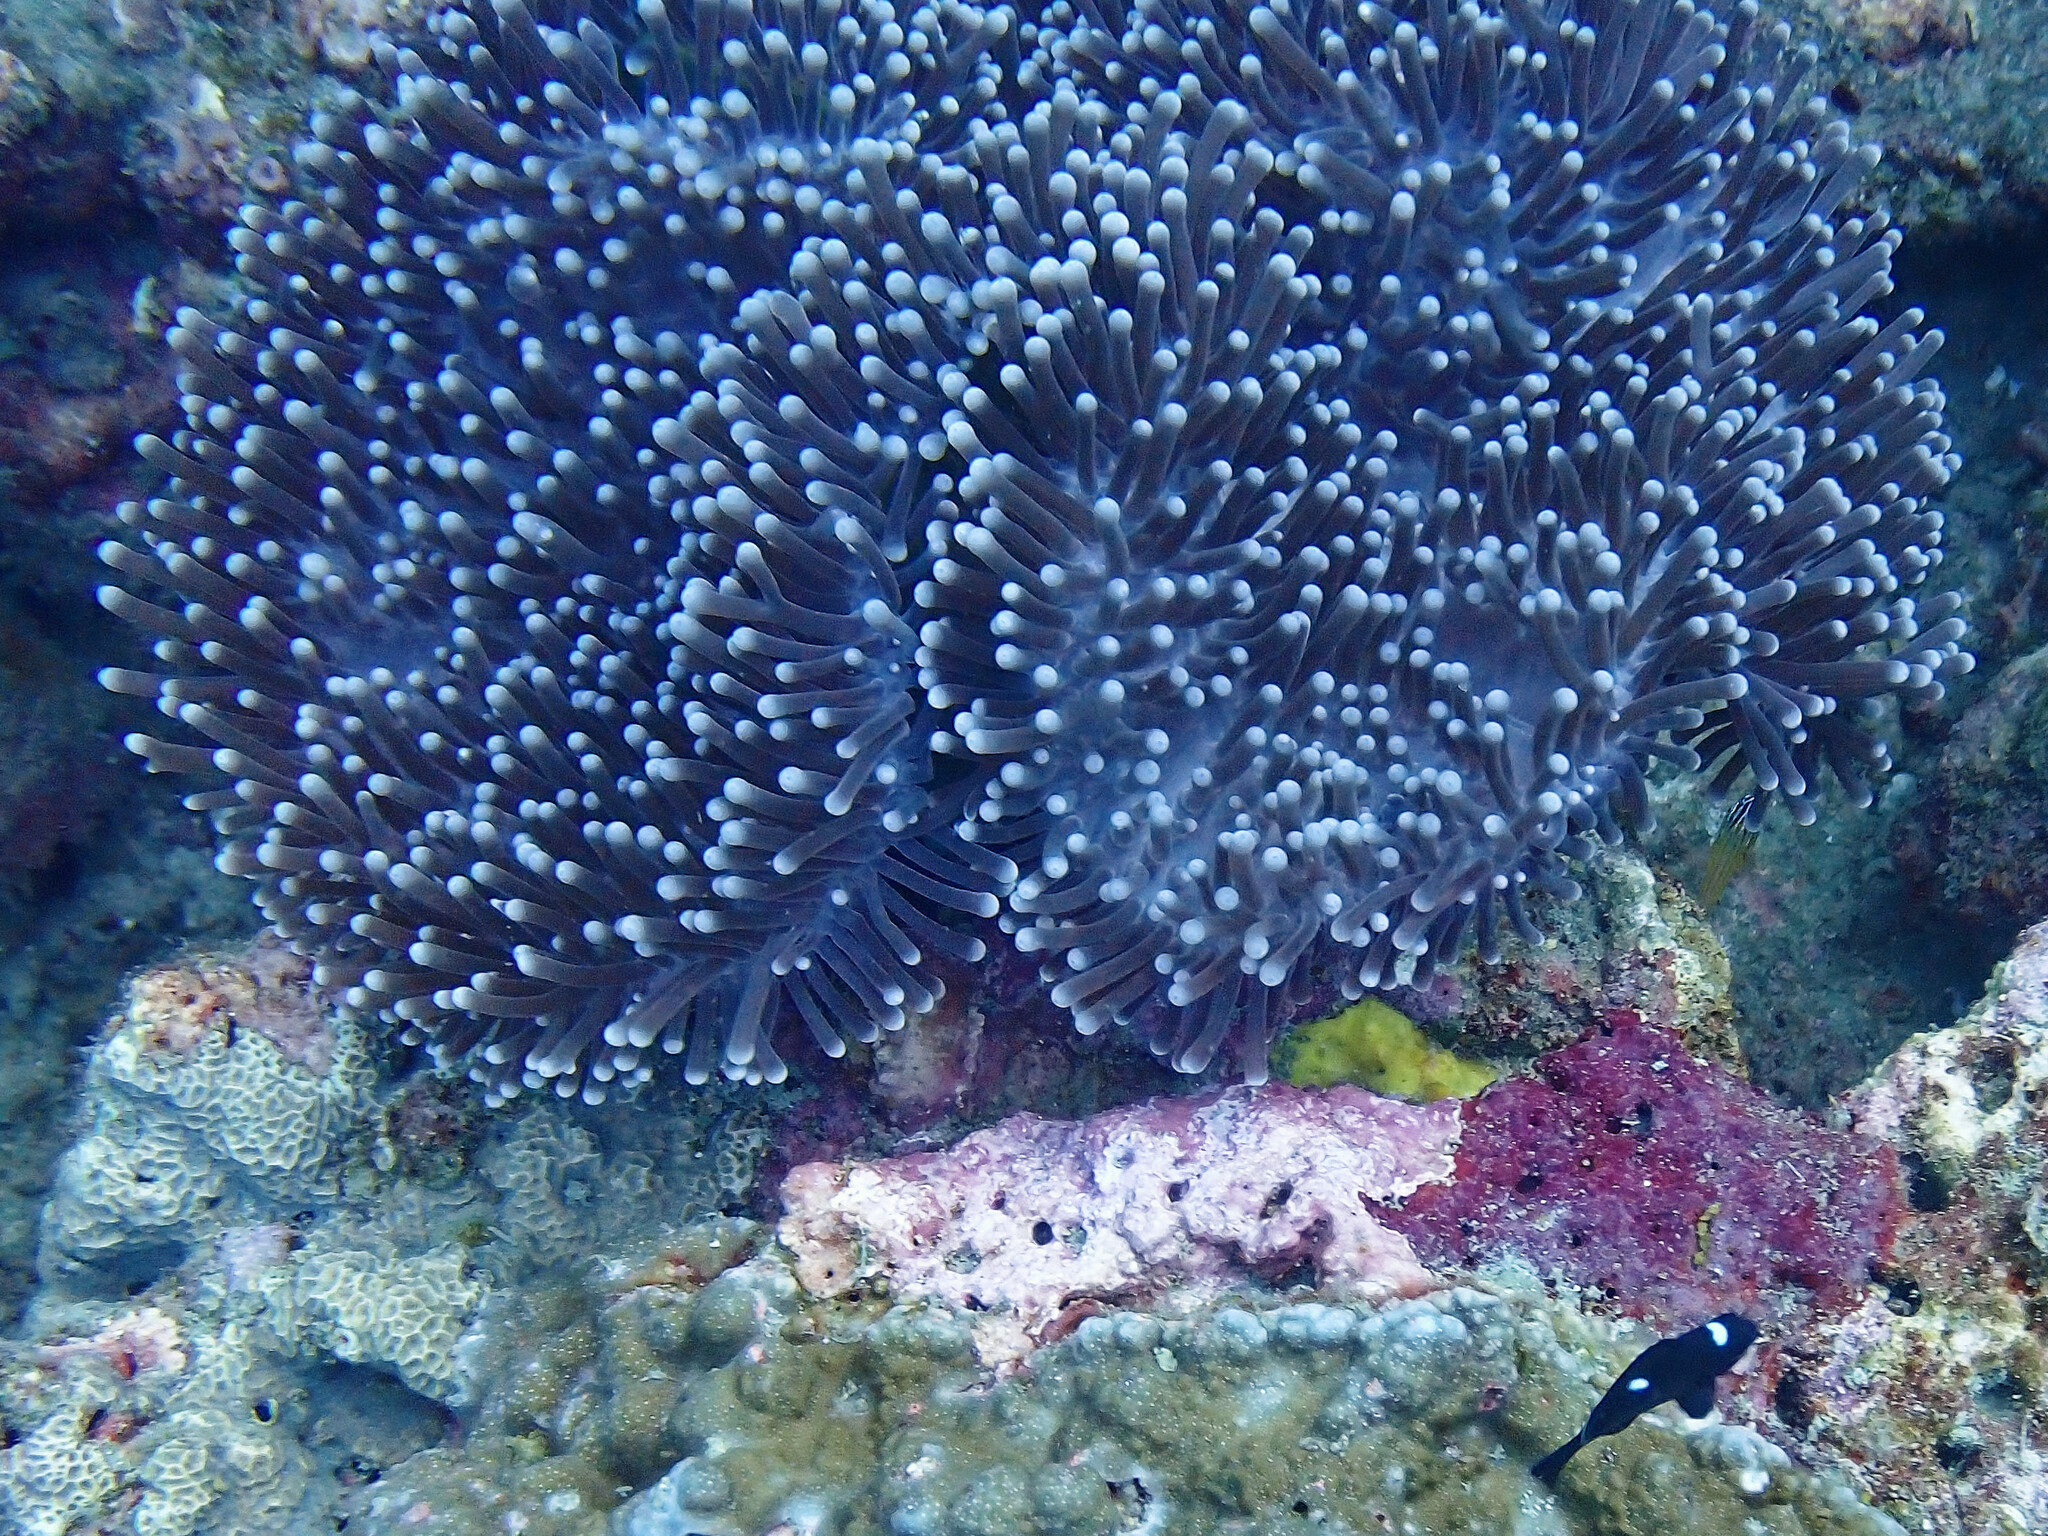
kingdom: Animalia
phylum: Cnidaria
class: Anthozoa
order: Actiniaria
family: Stichodactylidae
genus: Radianthus
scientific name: Radianthus magnifica
